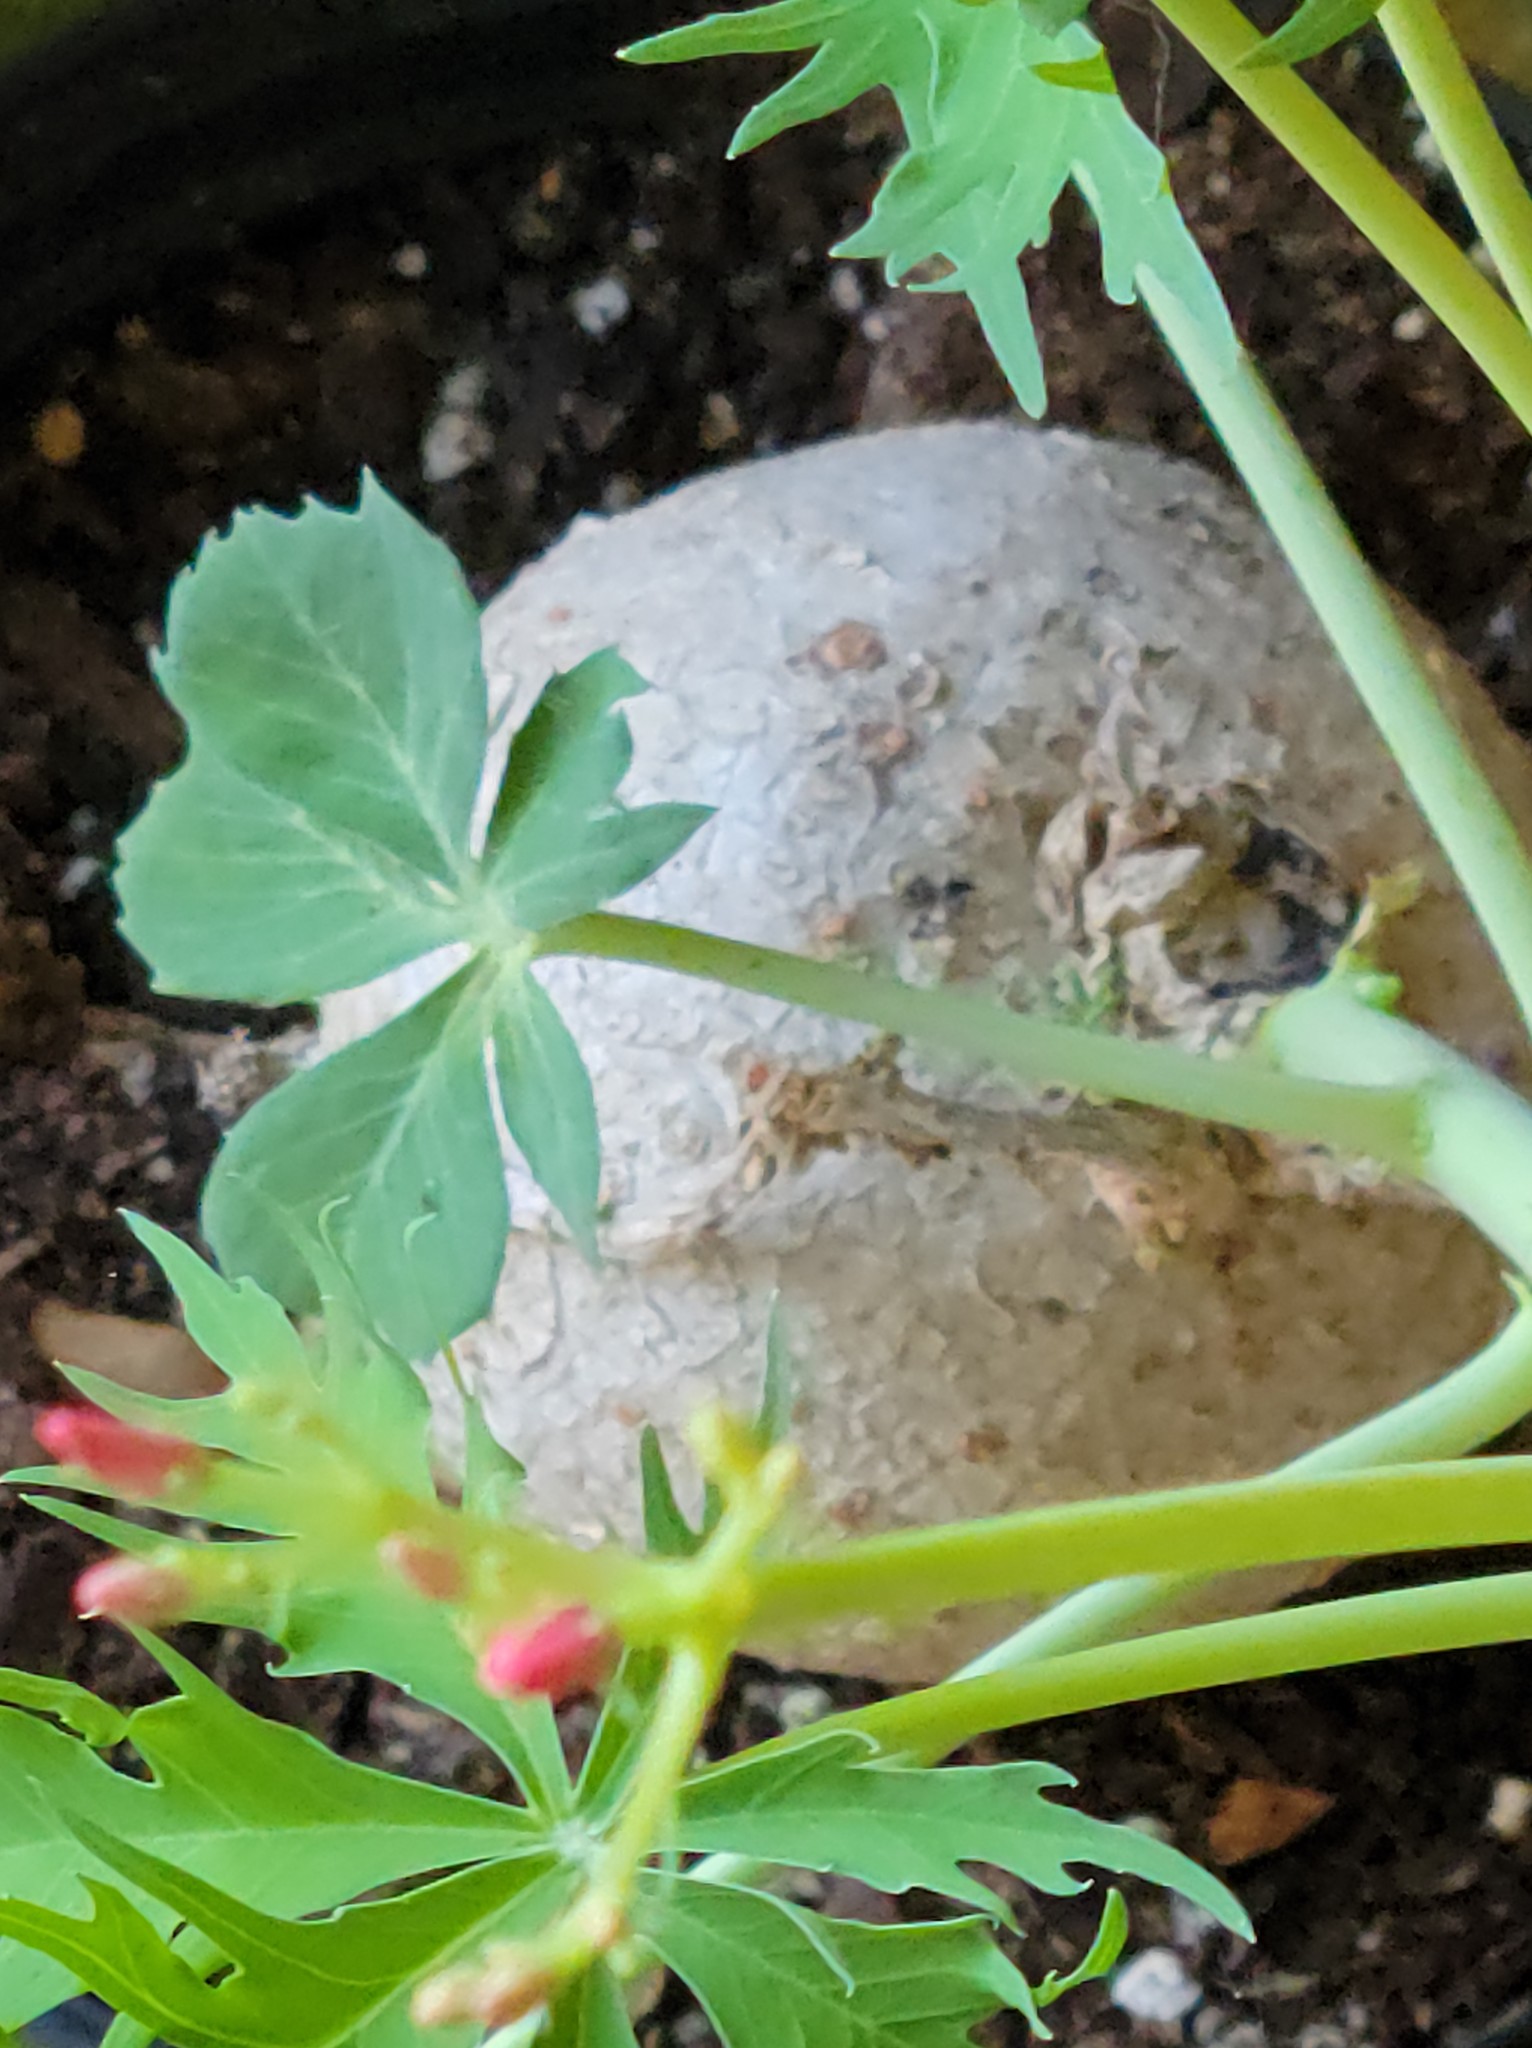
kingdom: Plantae
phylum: Tracheophyta
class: Magnoliopsida
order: Malpighiales
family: Euphorbiaceae
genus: Jatropha
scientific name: Jatropha cathartica
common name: Berlander's nettlespurge
